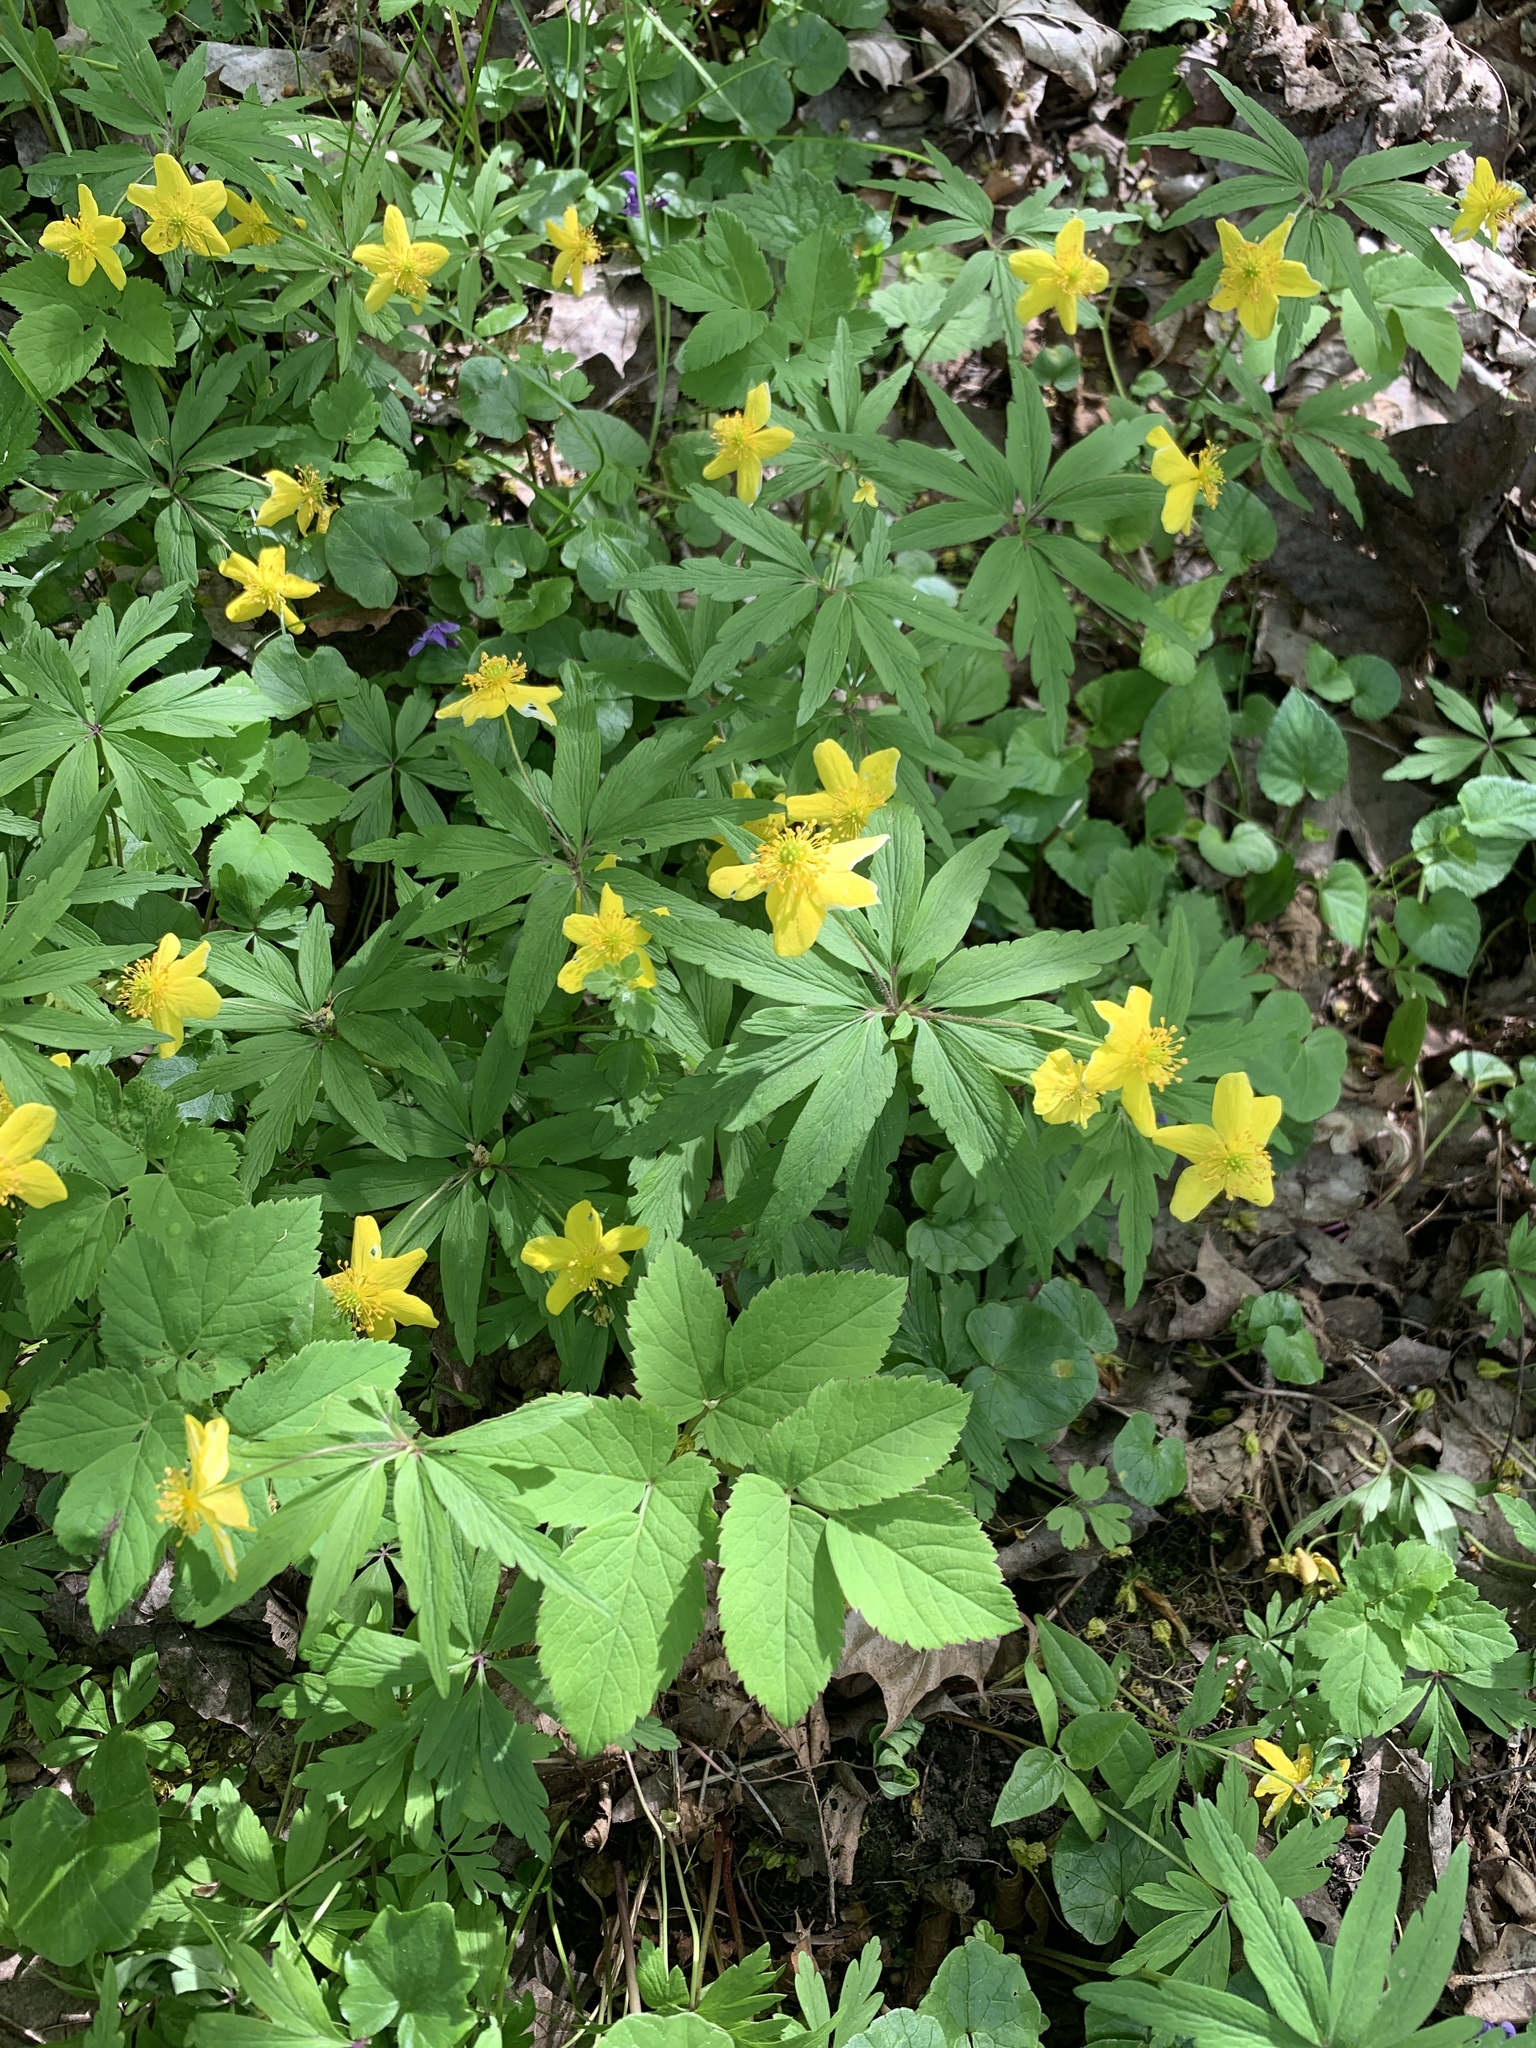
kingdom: Plantae
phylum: Tracheophyta
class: Magnoliopsida
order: Ranunculales
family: Ranunculaceae
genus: Anemone
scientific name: Anemone ranunculoides
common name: Yellow anemone
